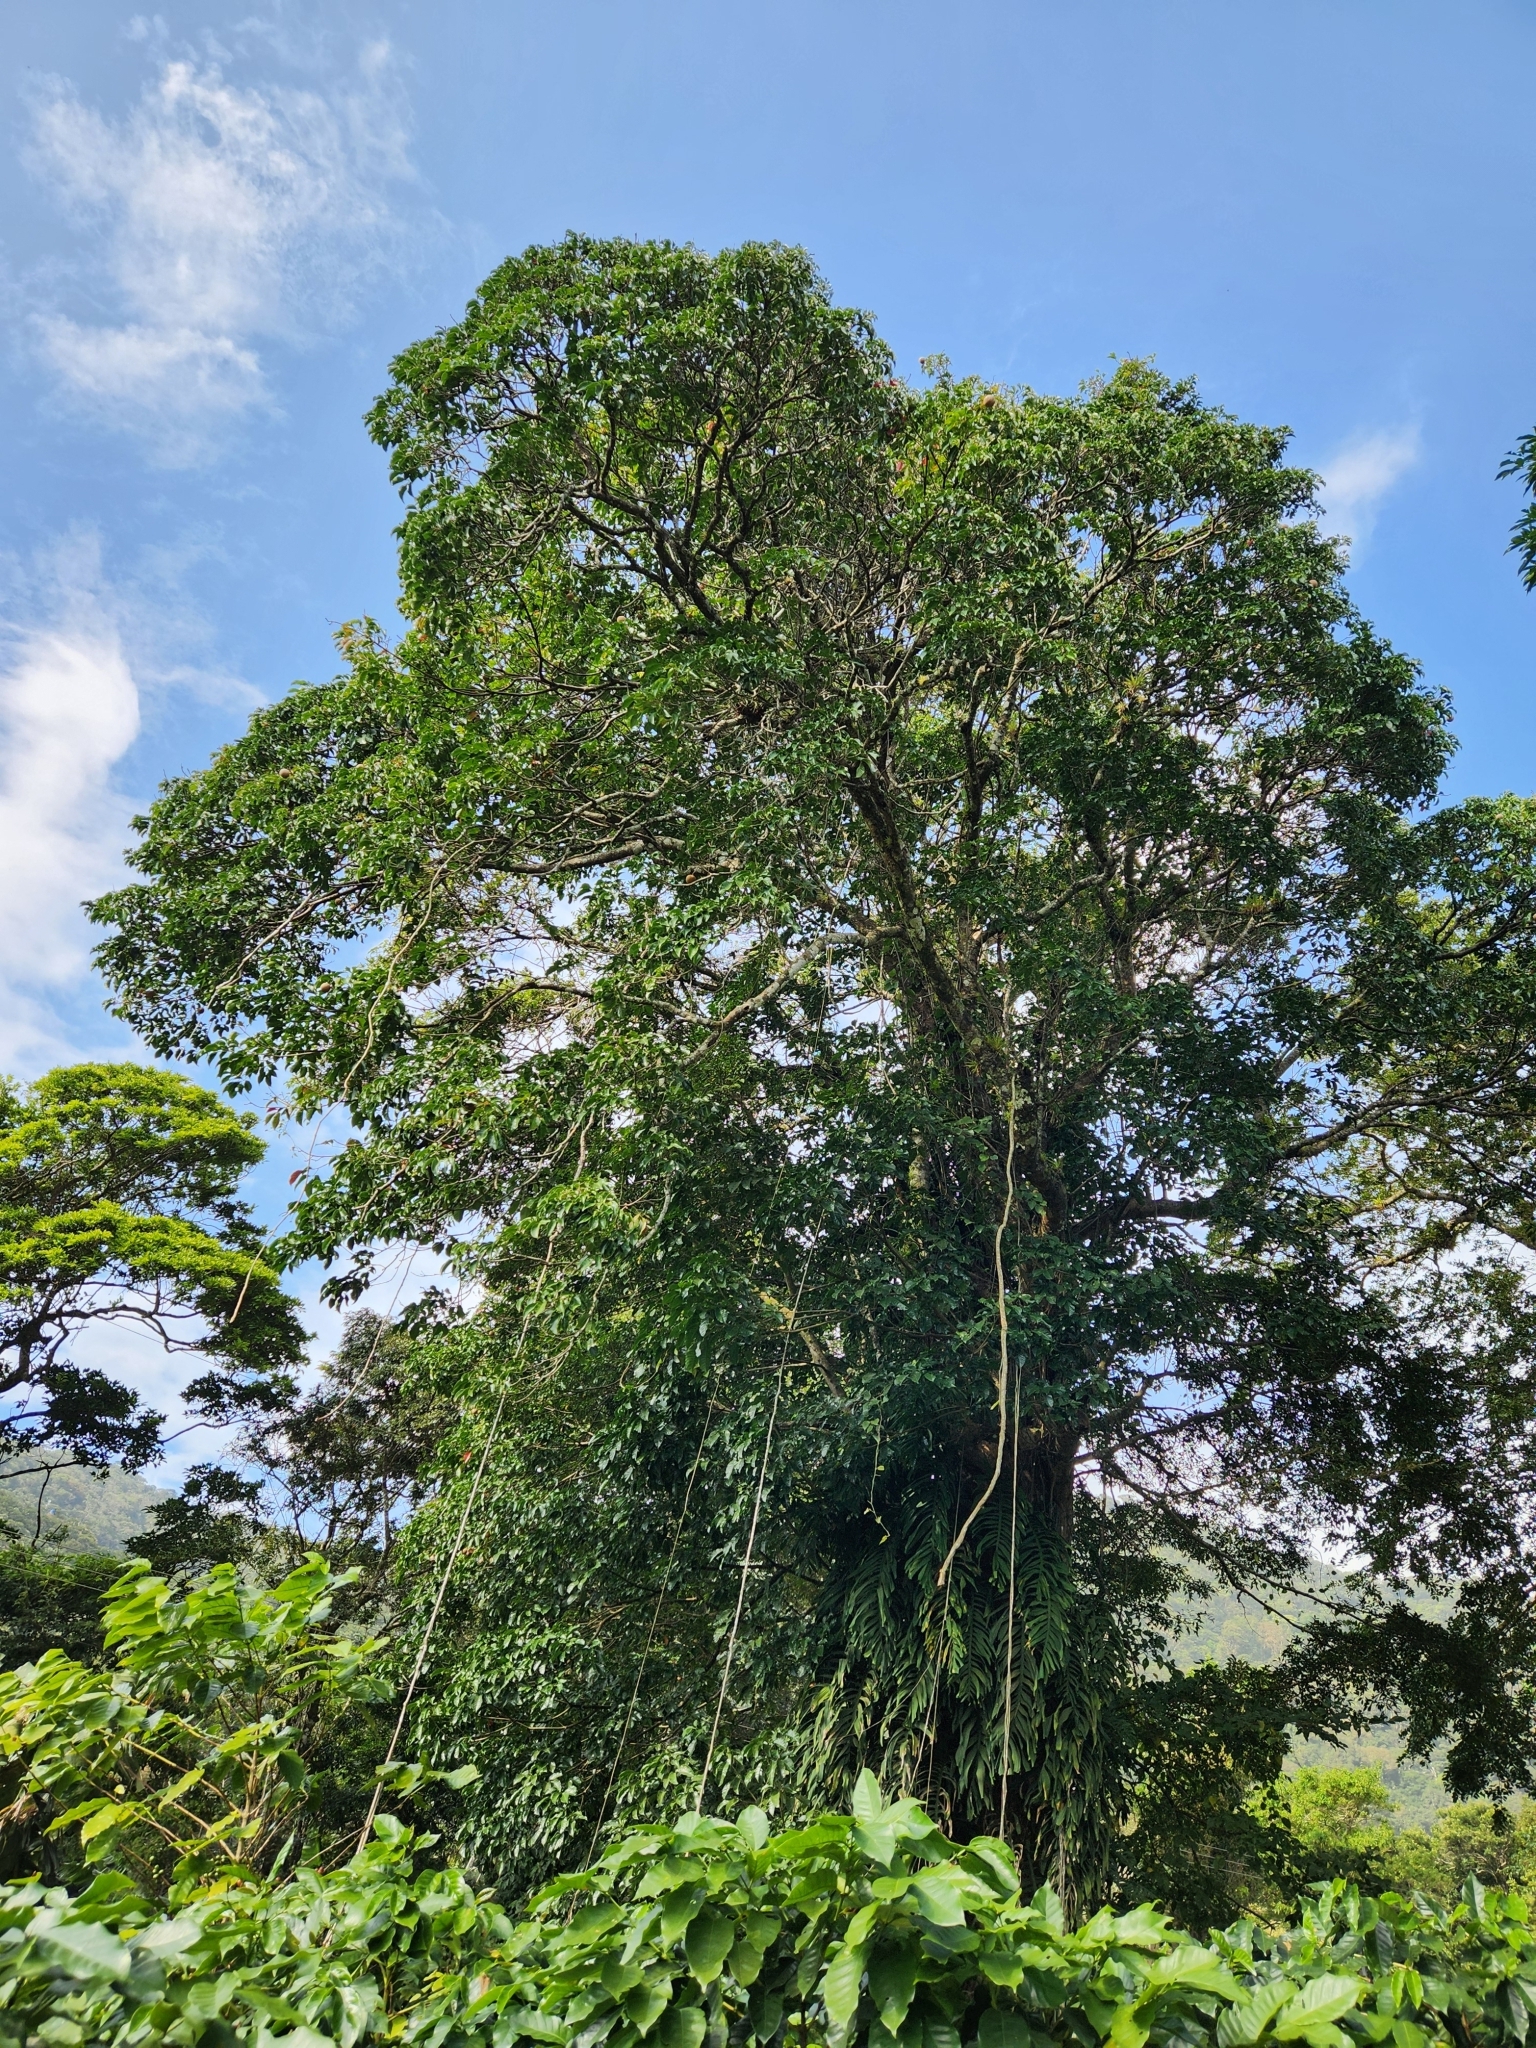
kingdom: Plantae
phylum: Tracheophyta
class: Magnoliopsida
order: Ericales
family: Lecythidaceae
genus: Couroupita
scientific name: Couroupita guianensis
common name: Cannonball tree
